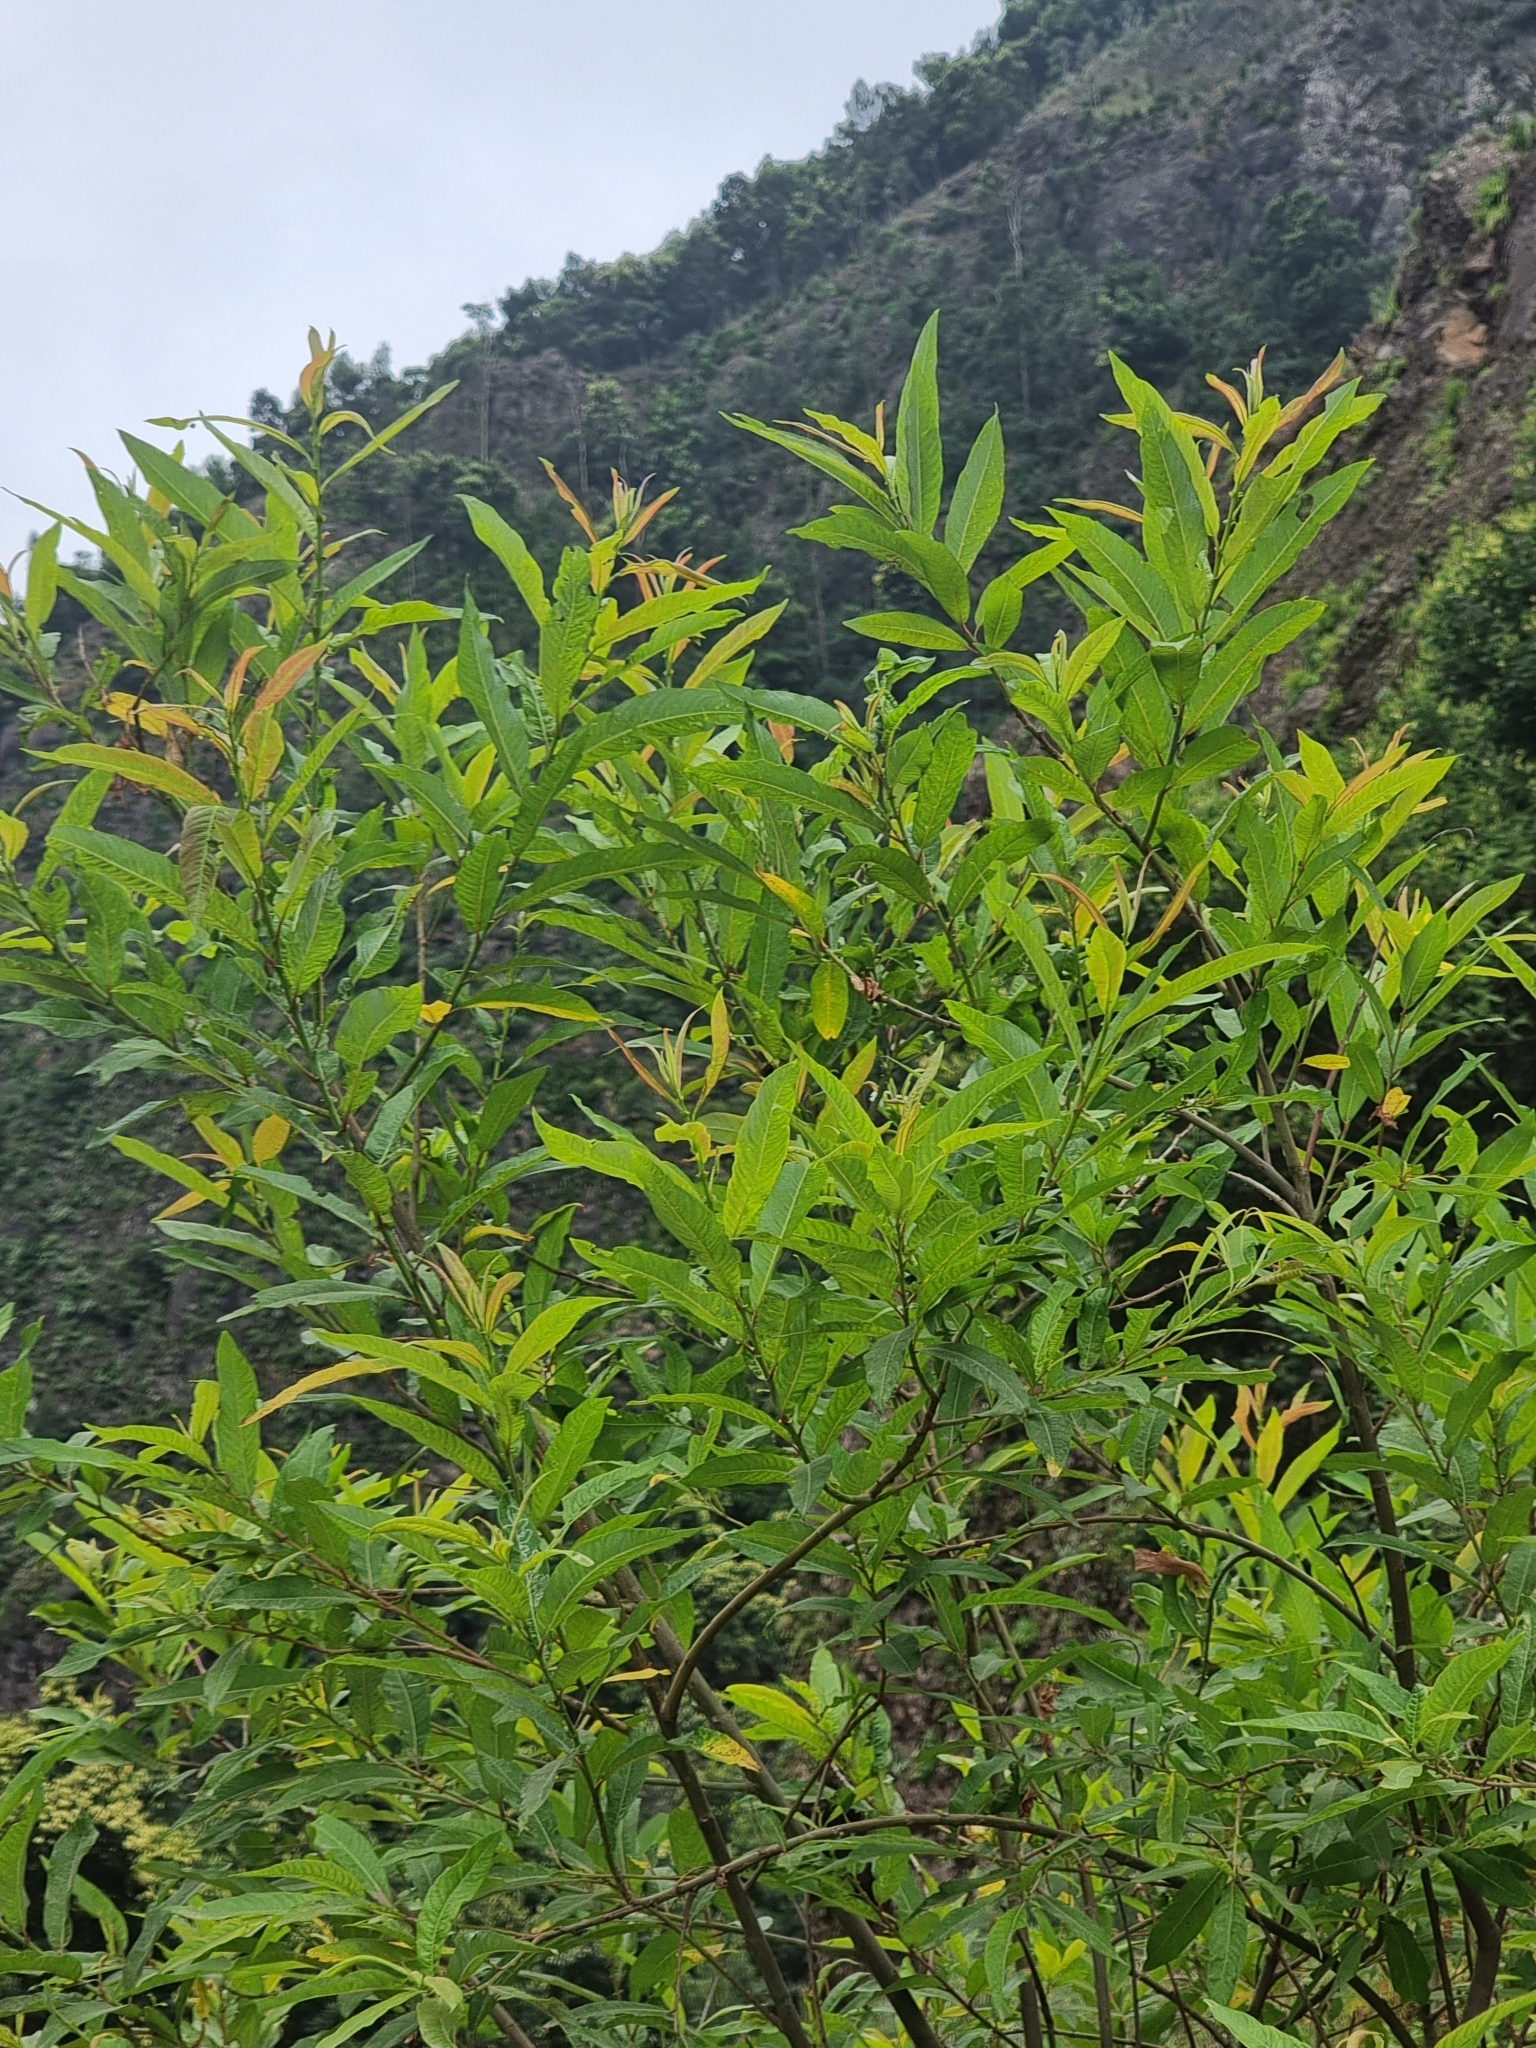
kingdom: Plantae
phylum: Tracheophyta
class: Magnoliopsida
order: Malpighiales
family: Salicaceae
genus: Salix
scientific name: Salix canariensis
